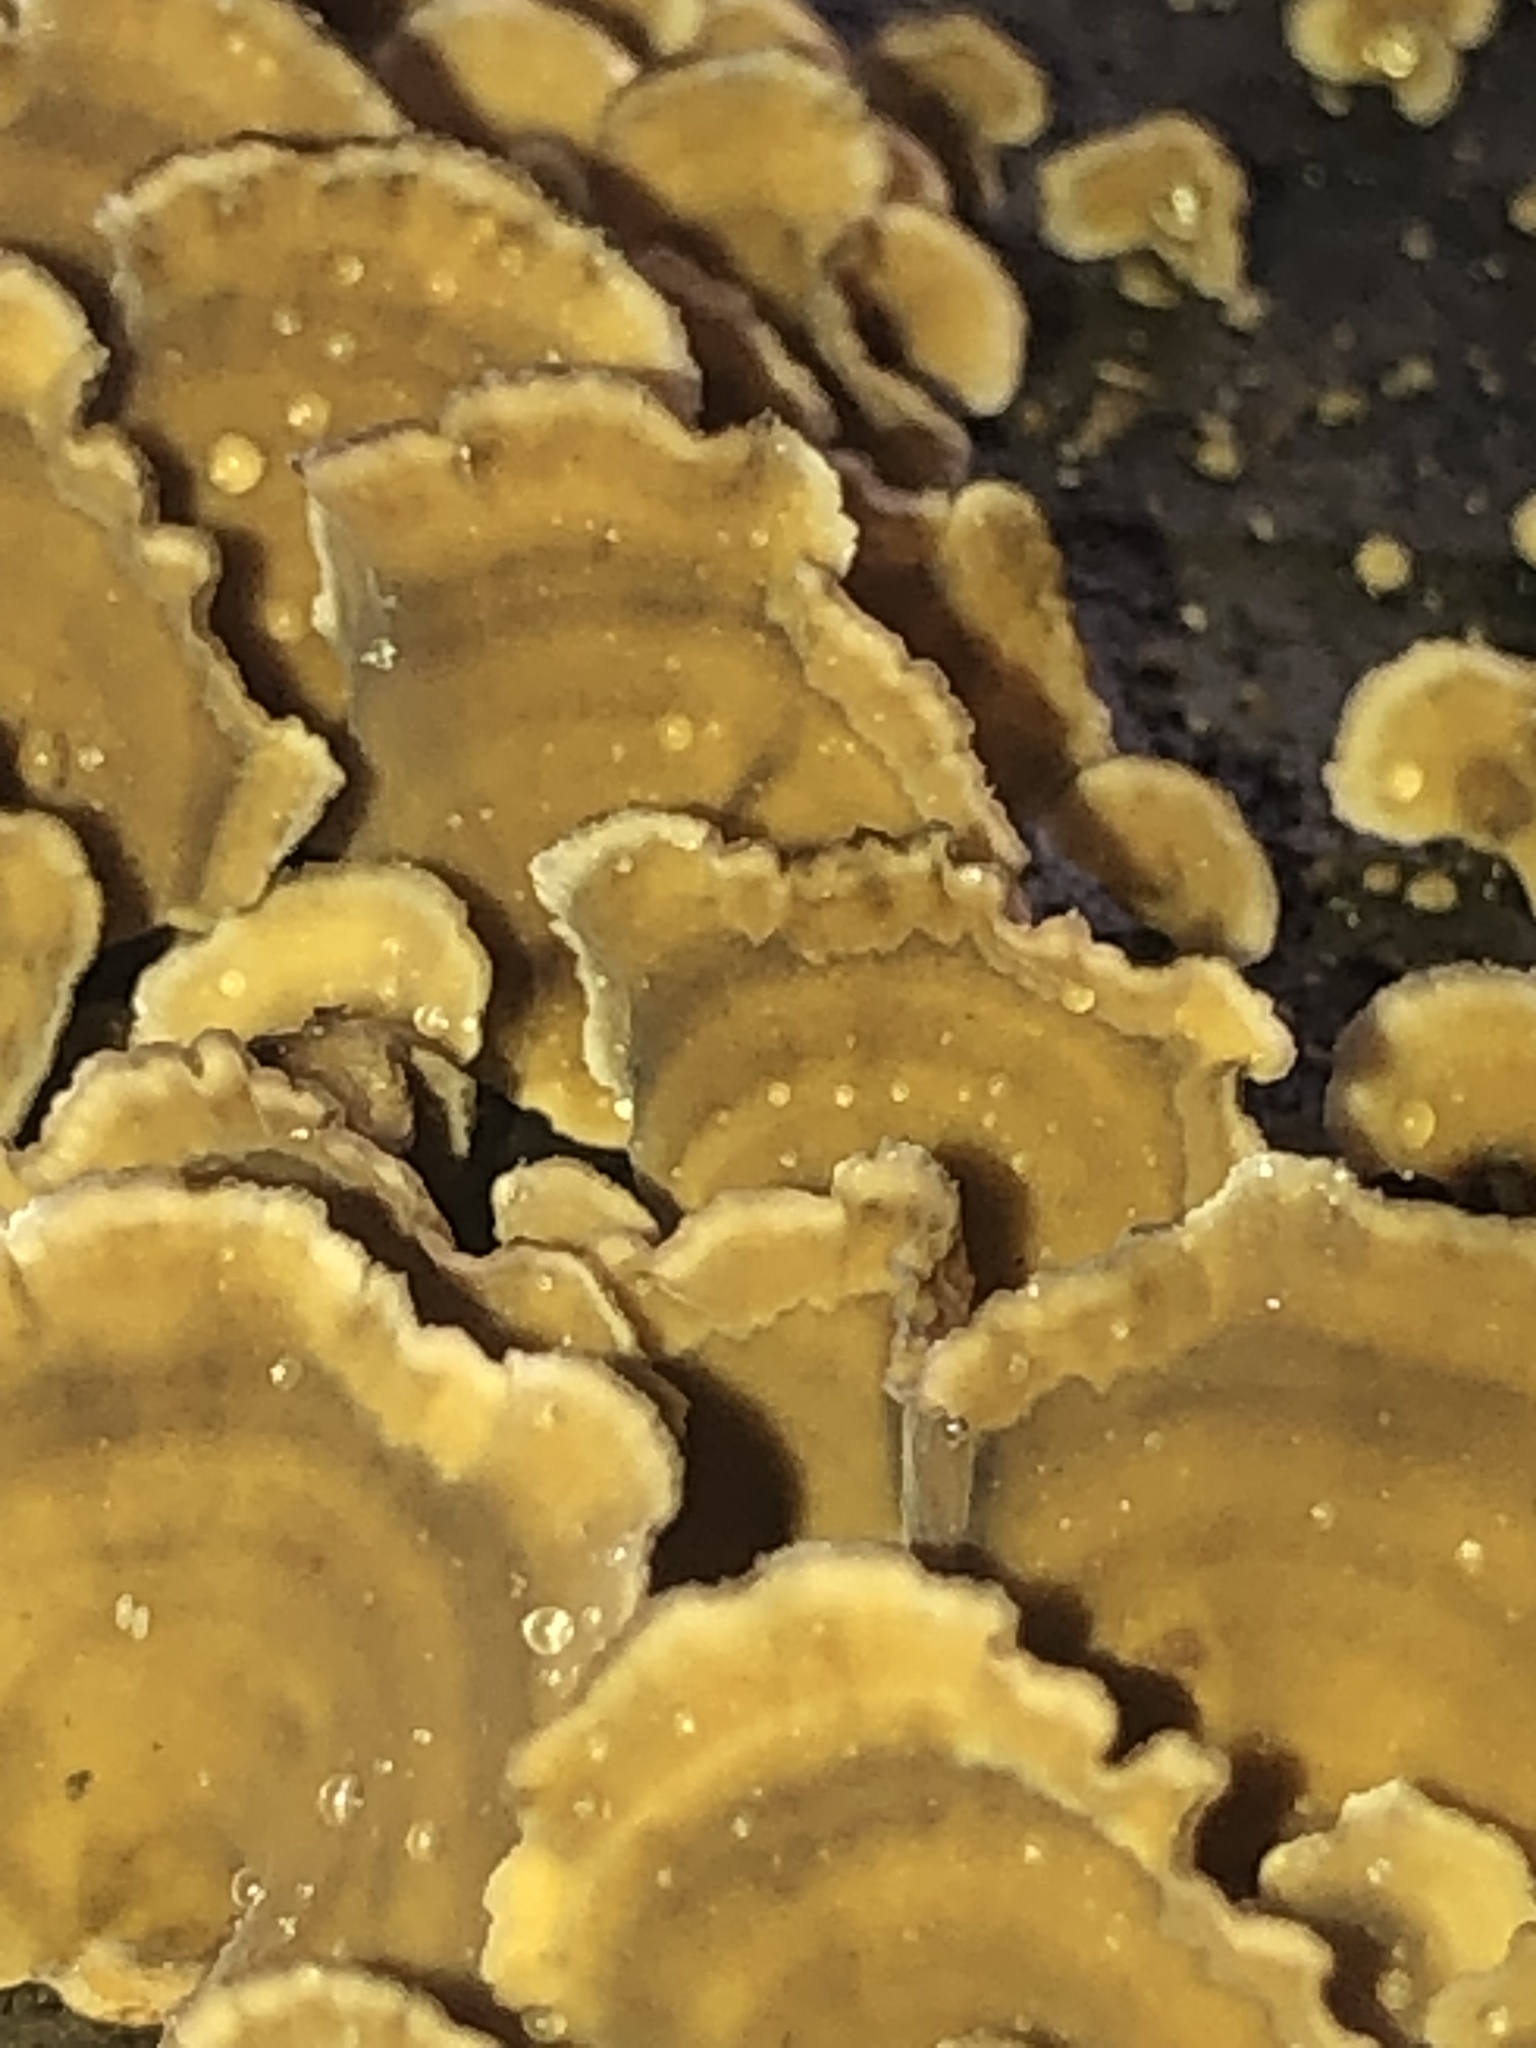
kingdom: Fungi
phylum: Basidiomycota
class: Agaricomycetes
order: Russulales
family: Stereaceae
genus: Stereum
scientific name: Stereum complicatum
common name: Crowded parchment
